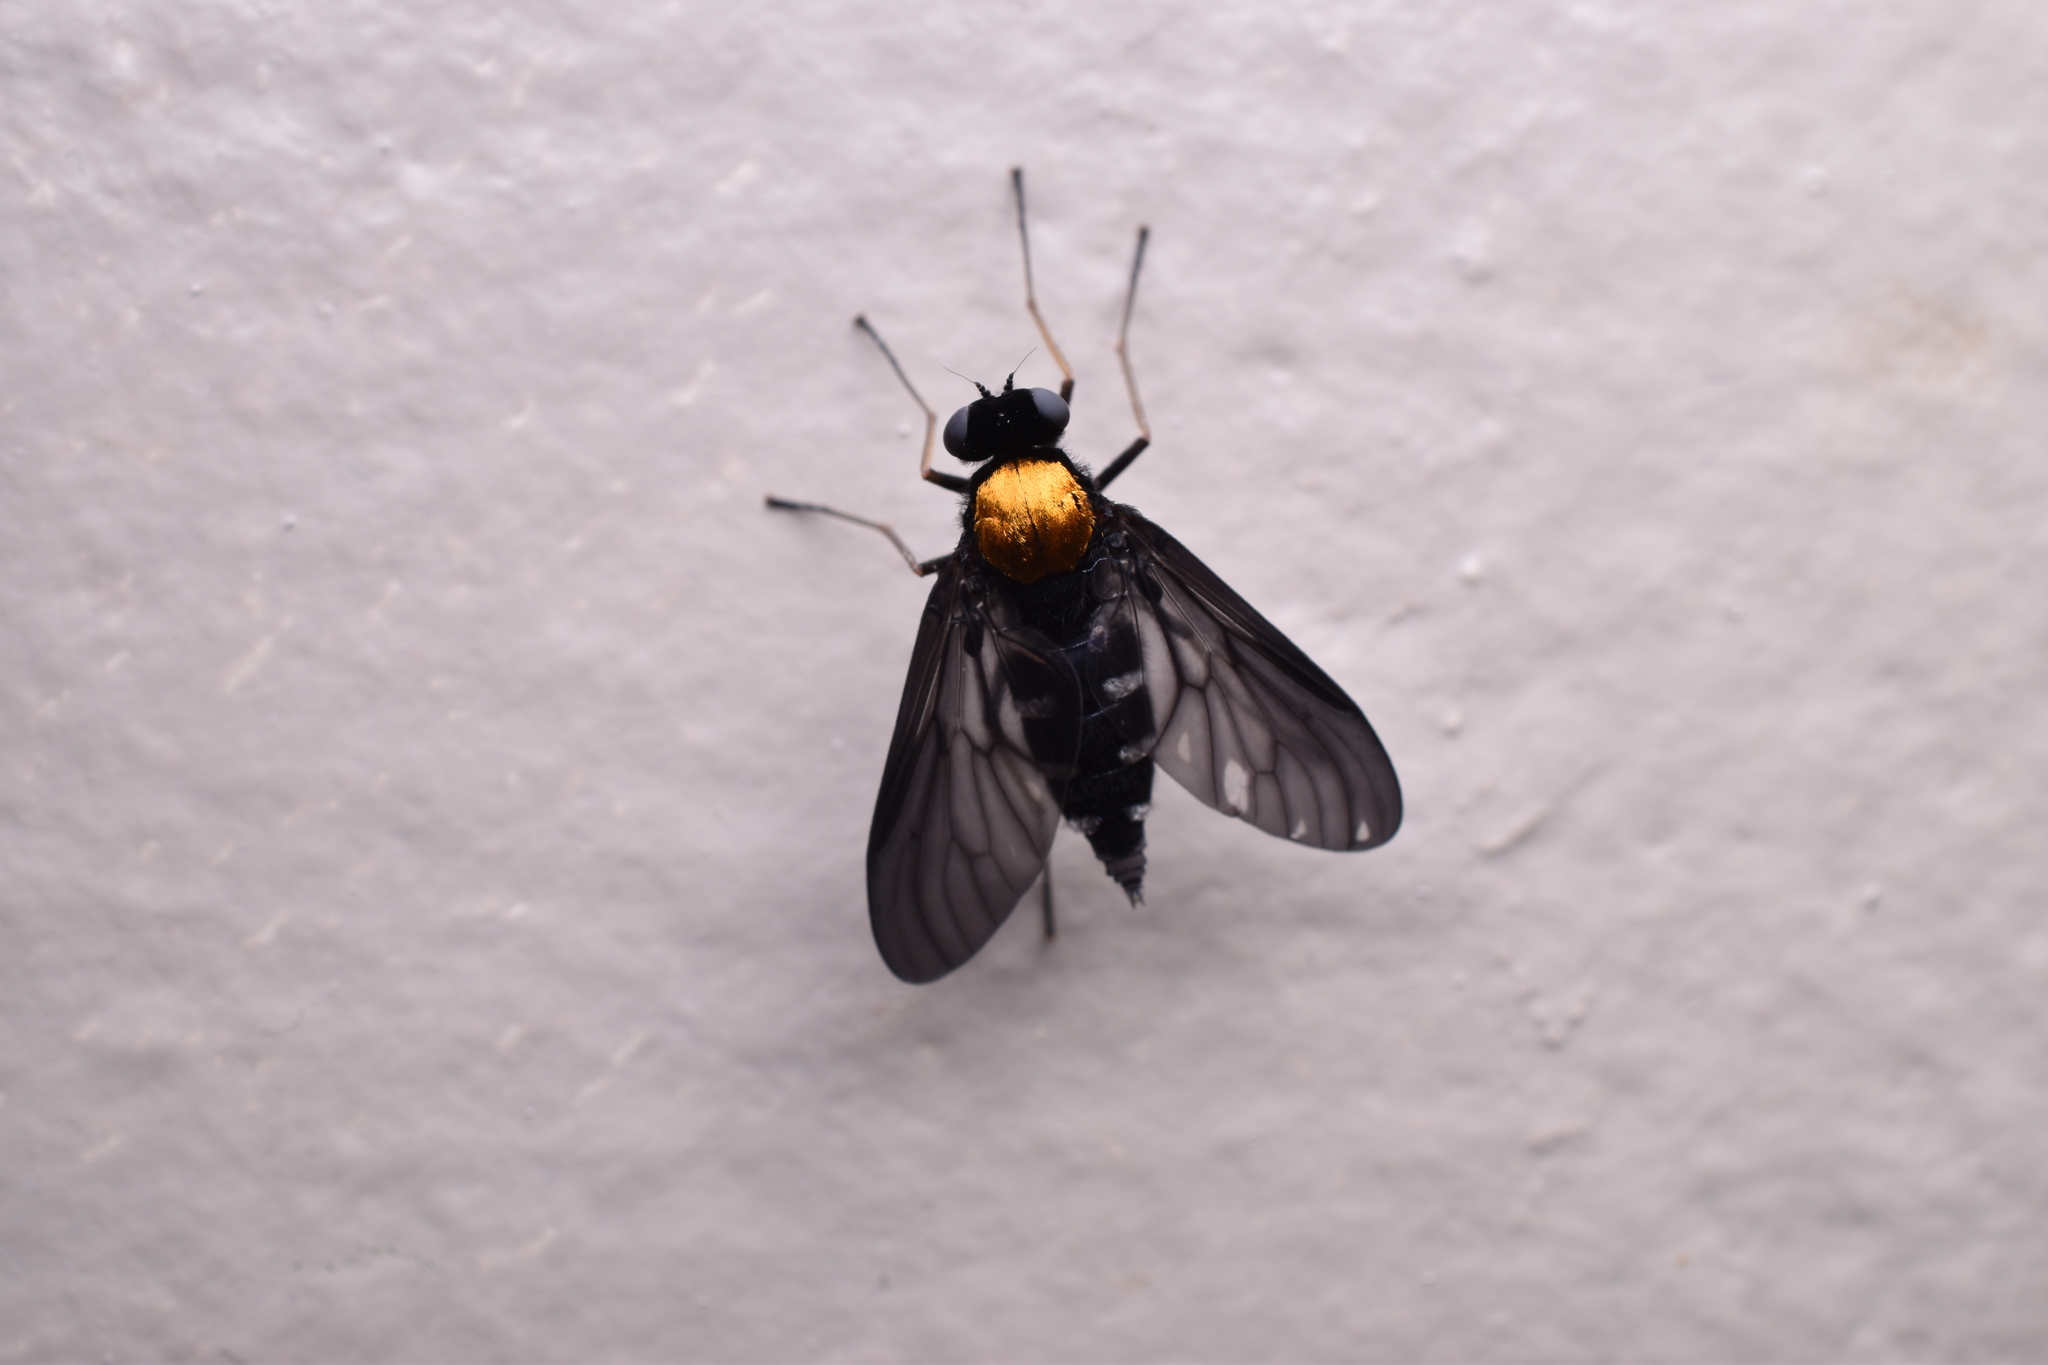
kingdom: Animalia
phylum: Arthropoda
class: Insecta
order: Diptera
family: Rhagionidae
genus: Chrysopilus
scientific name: Chrysopilus thoracicus
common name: Golden-backed snipe fly
